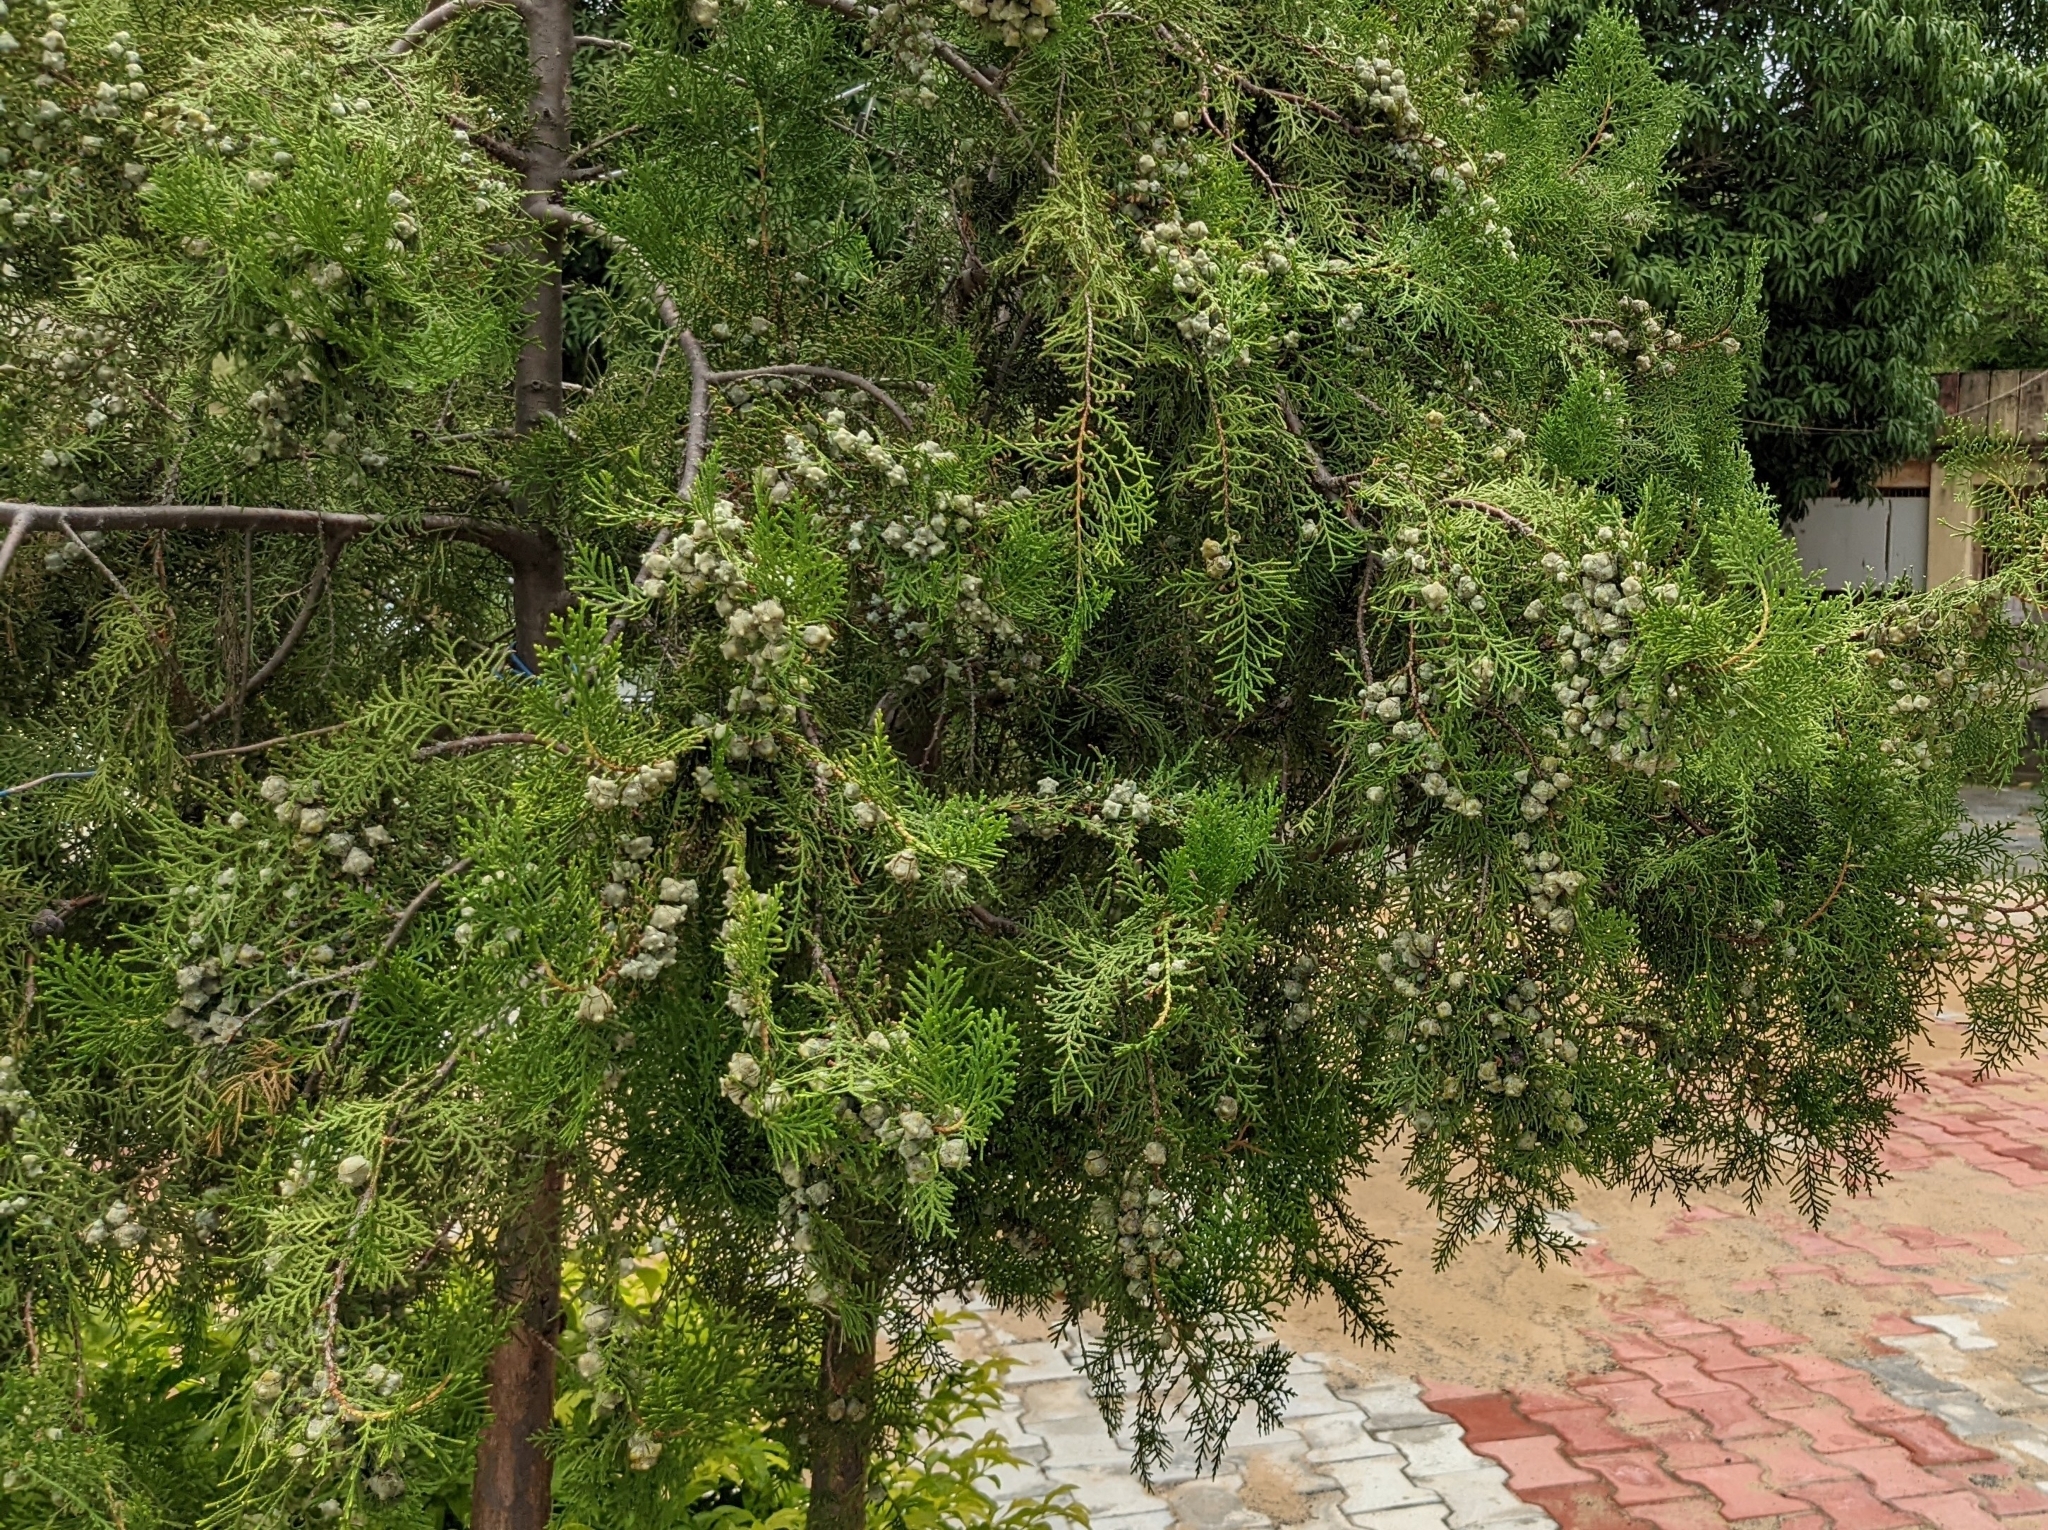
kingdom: Plantae
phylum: Tracheophyta
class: Pinopsida
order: Pinales
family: Cupressaceae
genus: Platycladus
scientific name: Platycladus orientalis
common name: Chinese thuja
